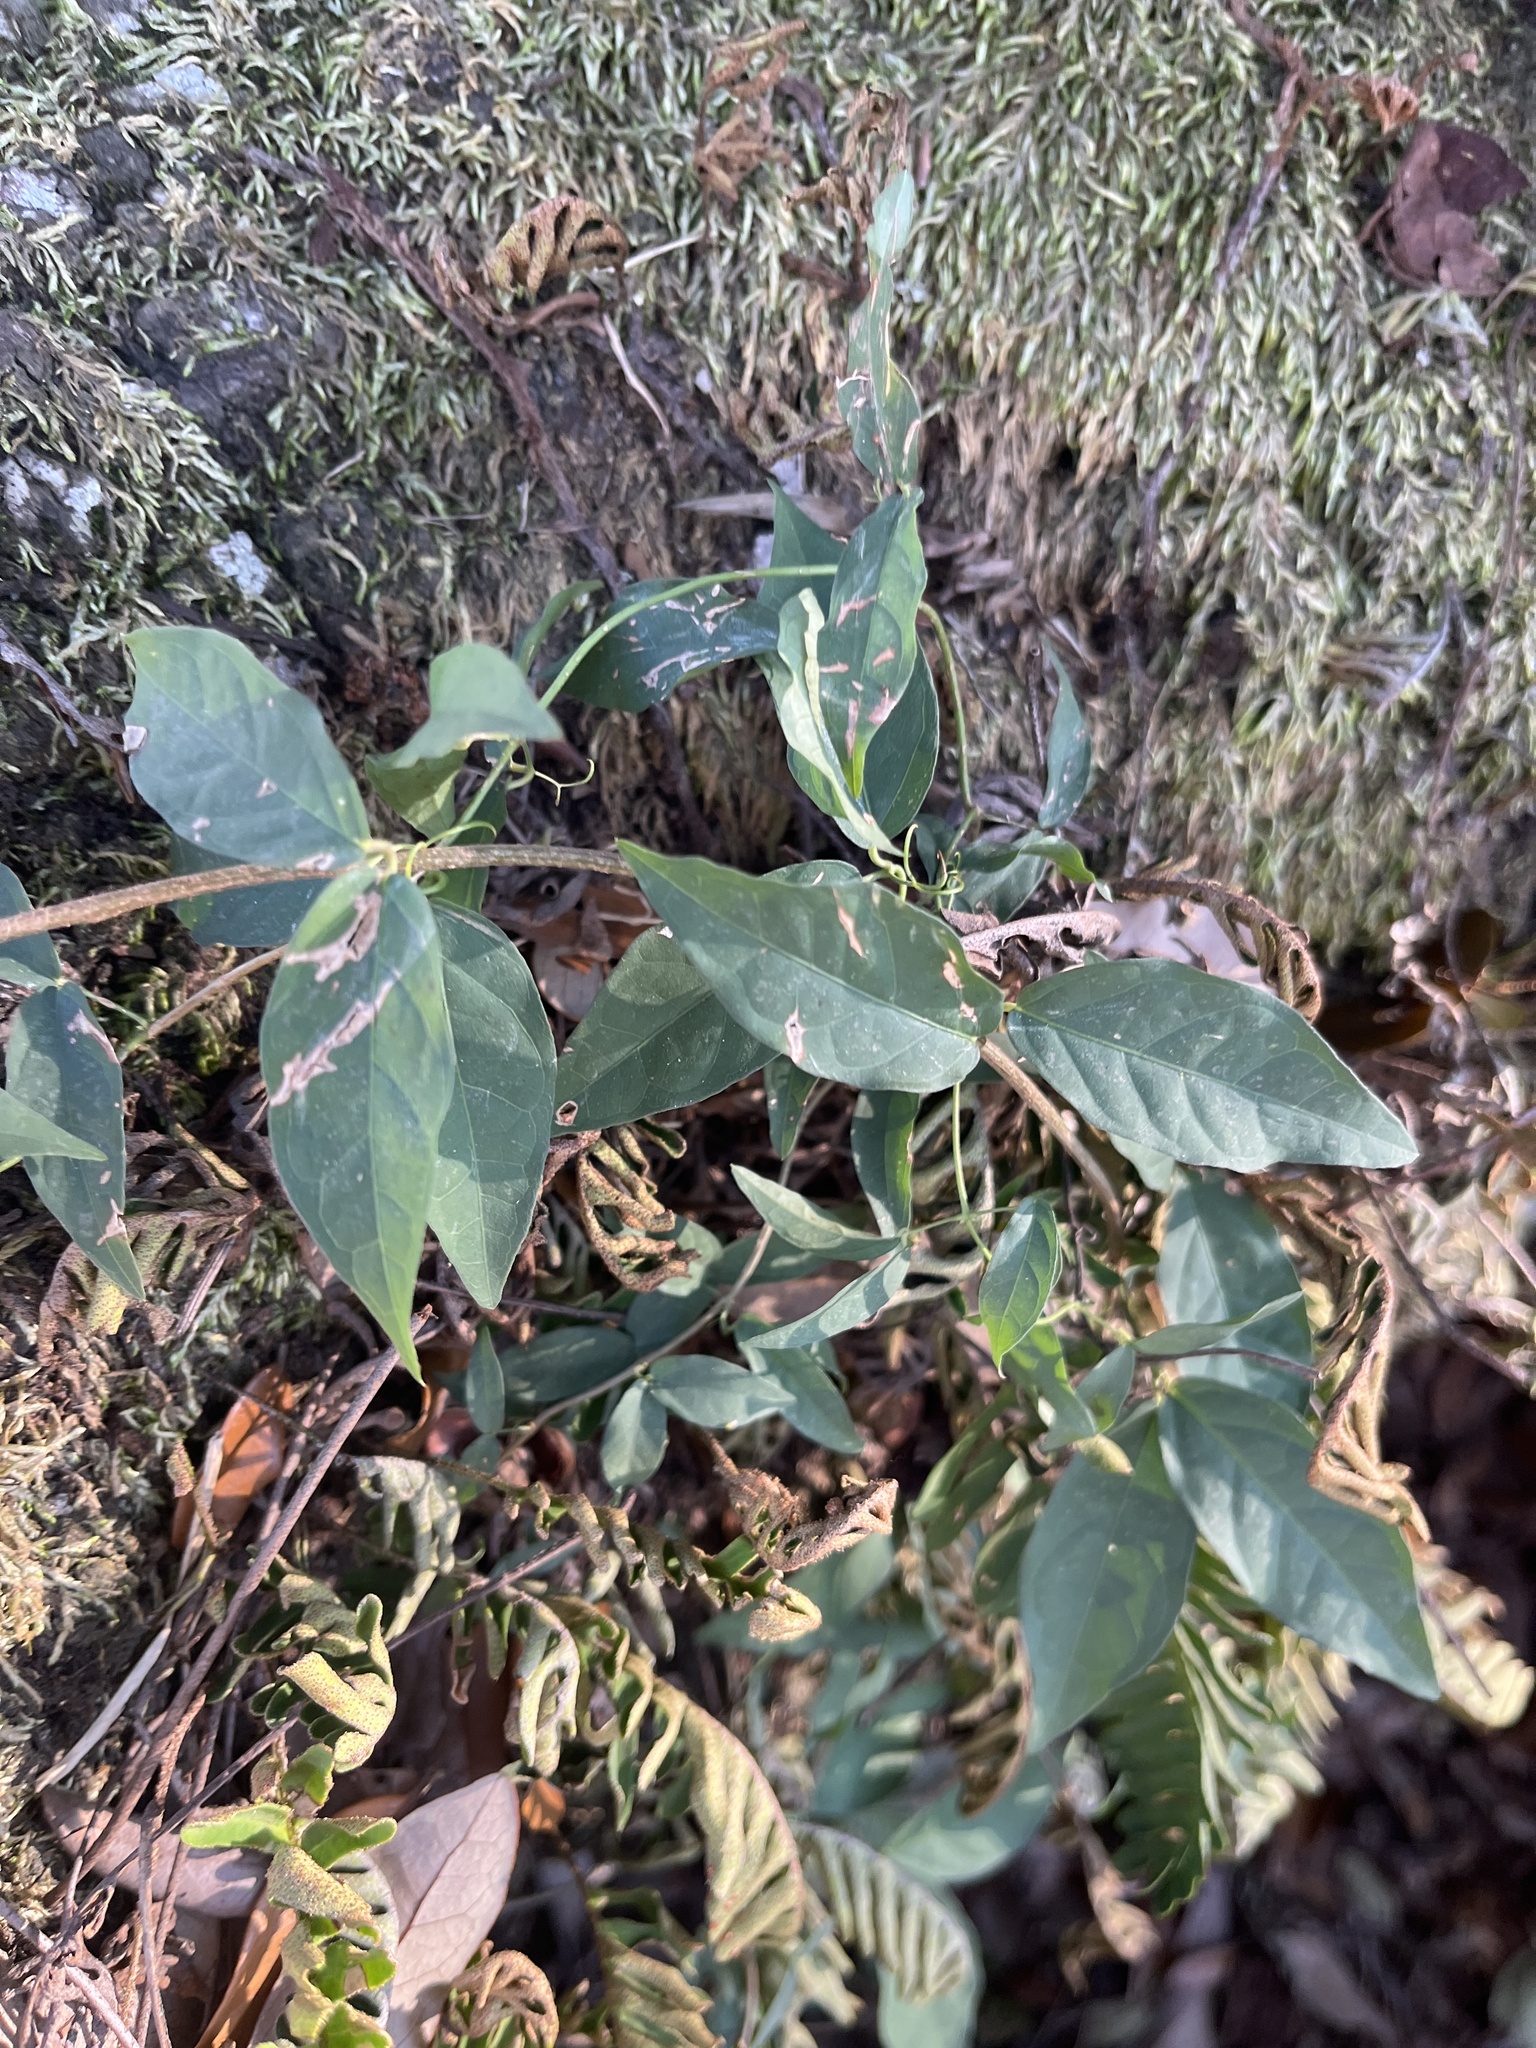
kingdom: Plantae
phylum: Tracheophyta
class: Magnoliopsida
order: Lamiales
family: Bignoniaceae
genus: Dolichandra
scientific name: Dolichandra unguis-cati
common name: Catclaw vine
